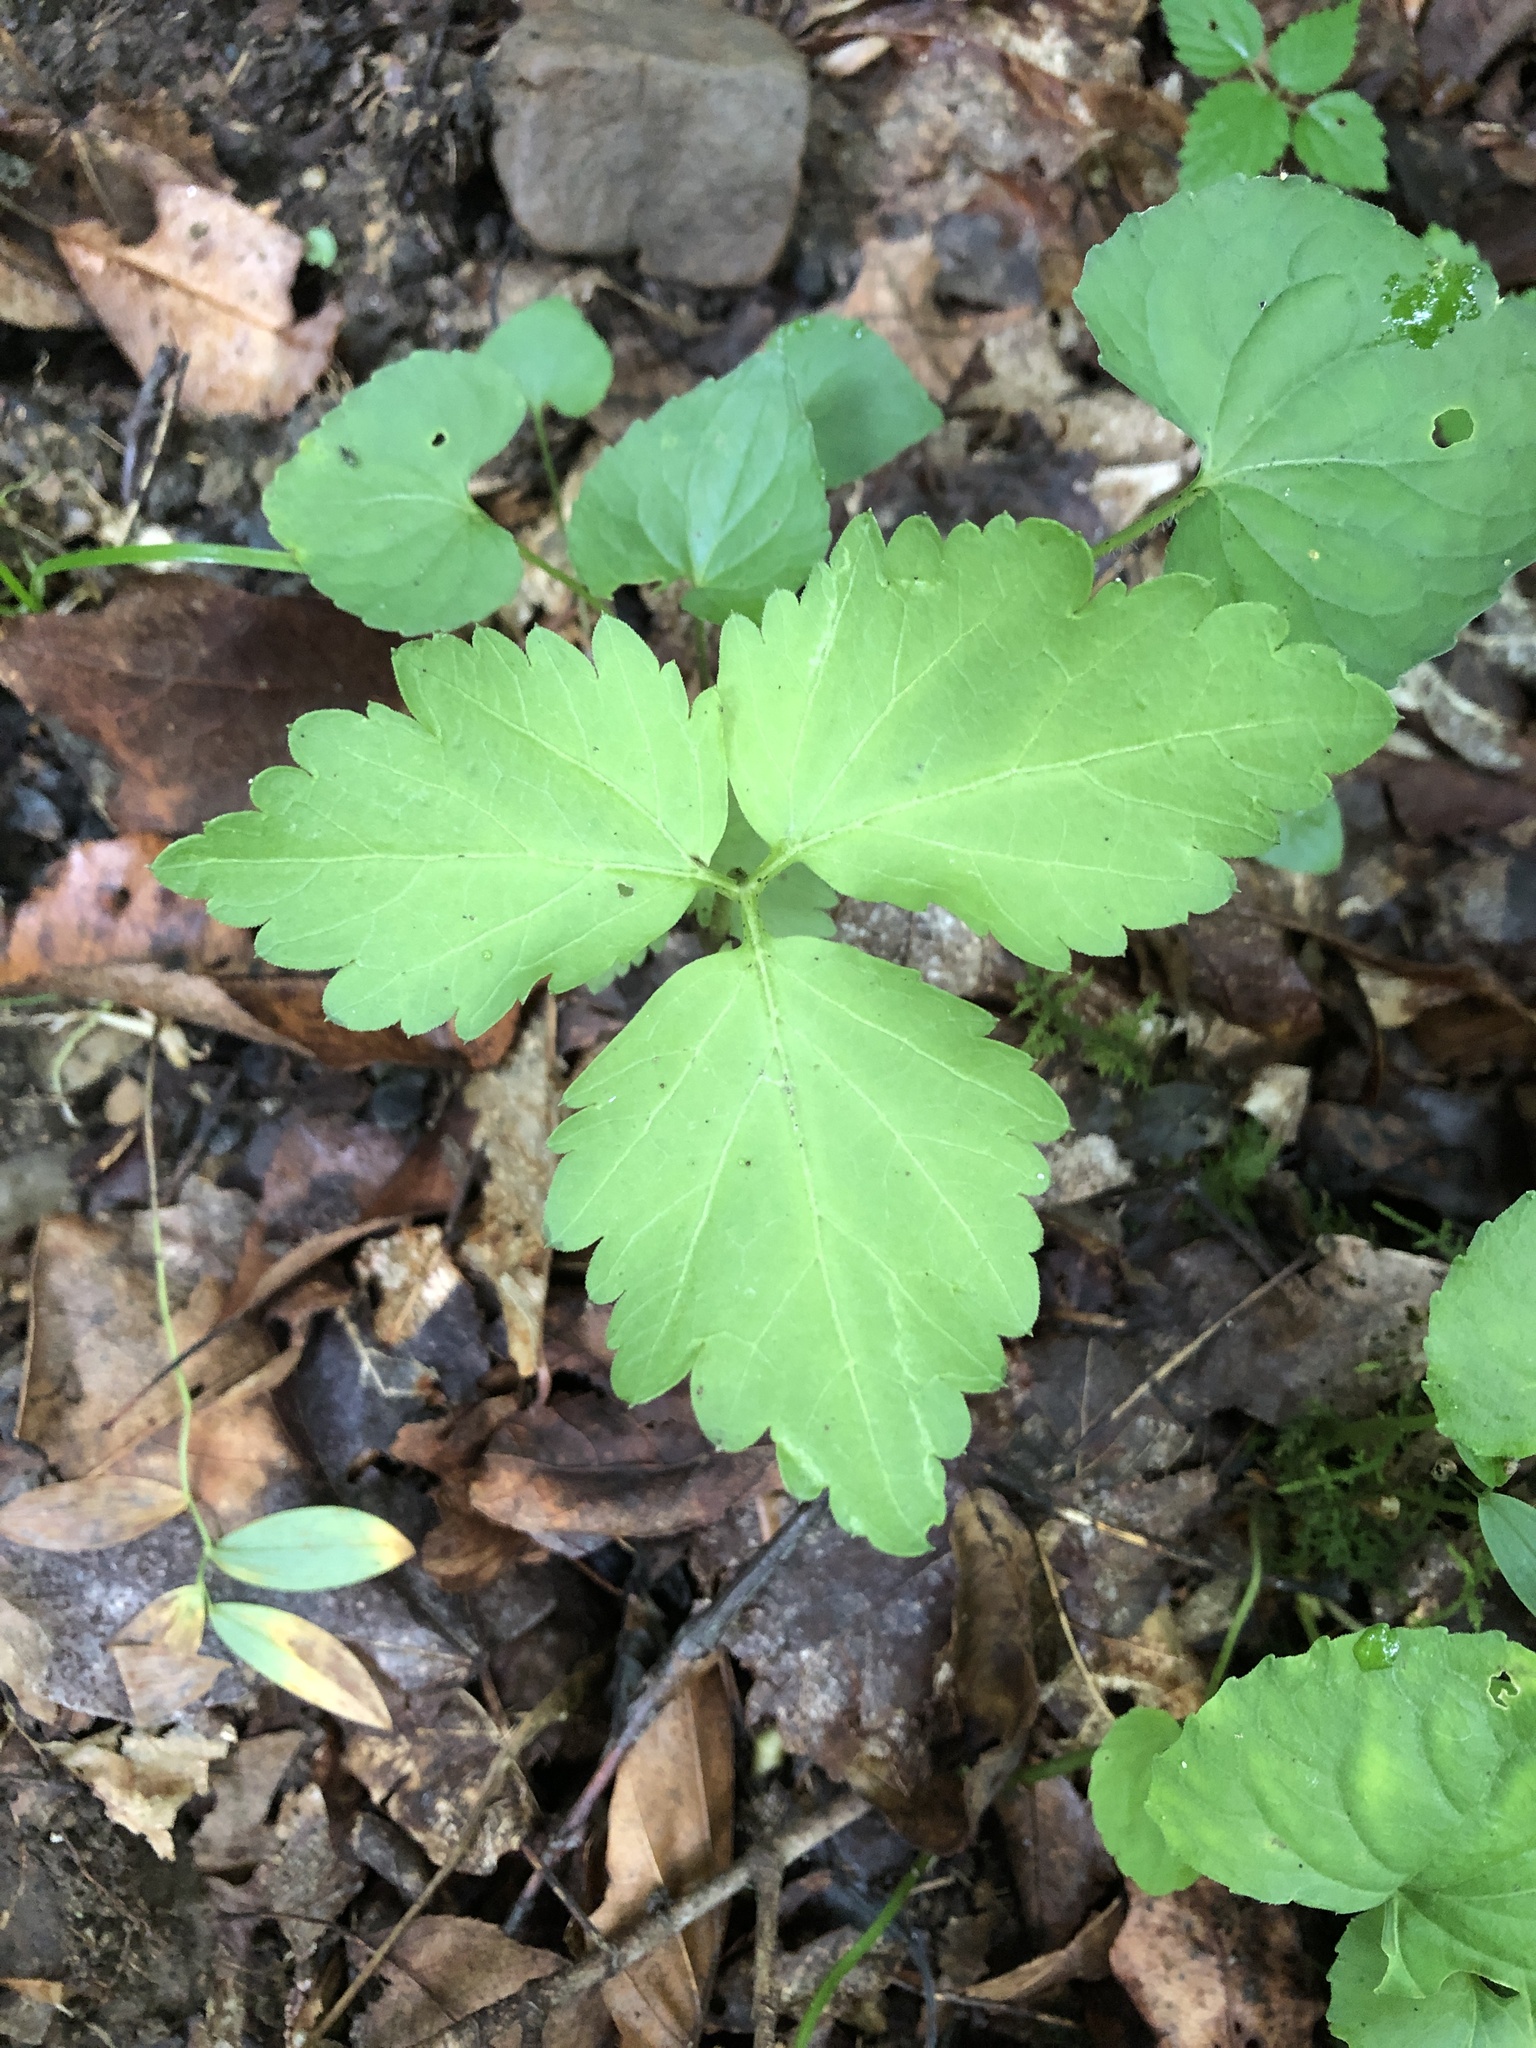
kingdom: Plantae
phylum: Tracheophyta
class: Magnoliopsida
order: Brassicales
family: Brassicaceae
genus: Cardamine
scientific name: Cardamine diphylla
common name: Broad-leaved toothwort
